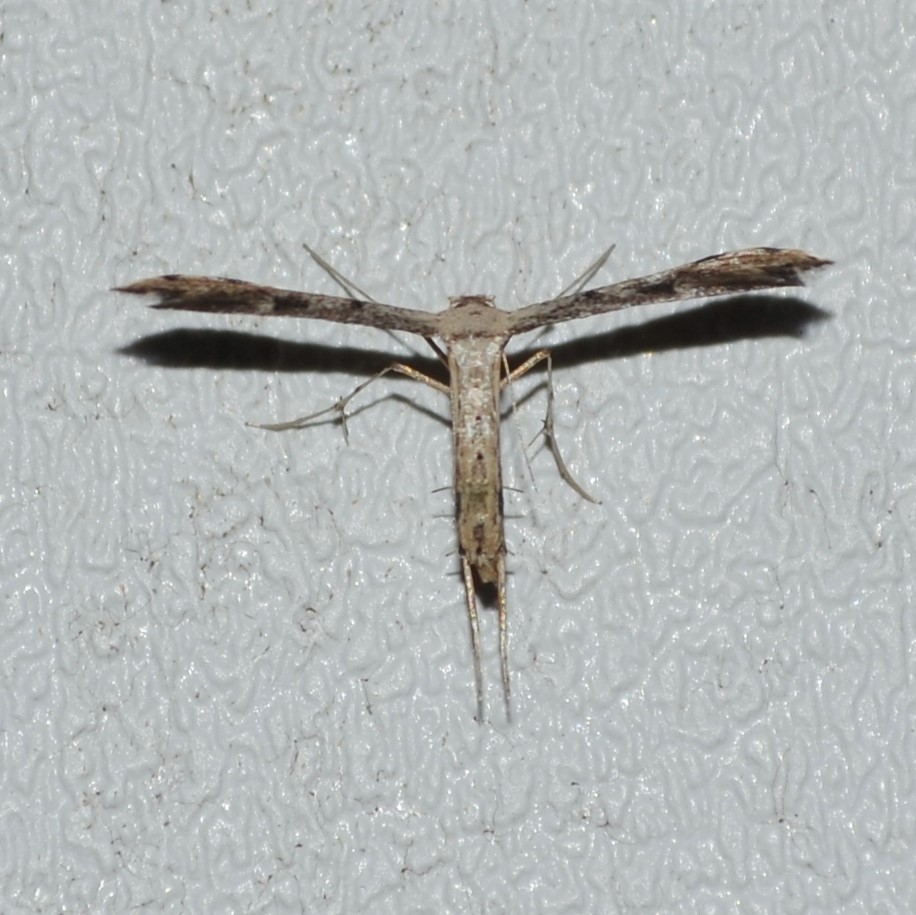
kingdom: Animalia
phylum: Arthropoda
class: Insecta
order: Lepidoptera
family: Pterophoridae
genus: Adaina
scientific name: Adaina ambrosiae
